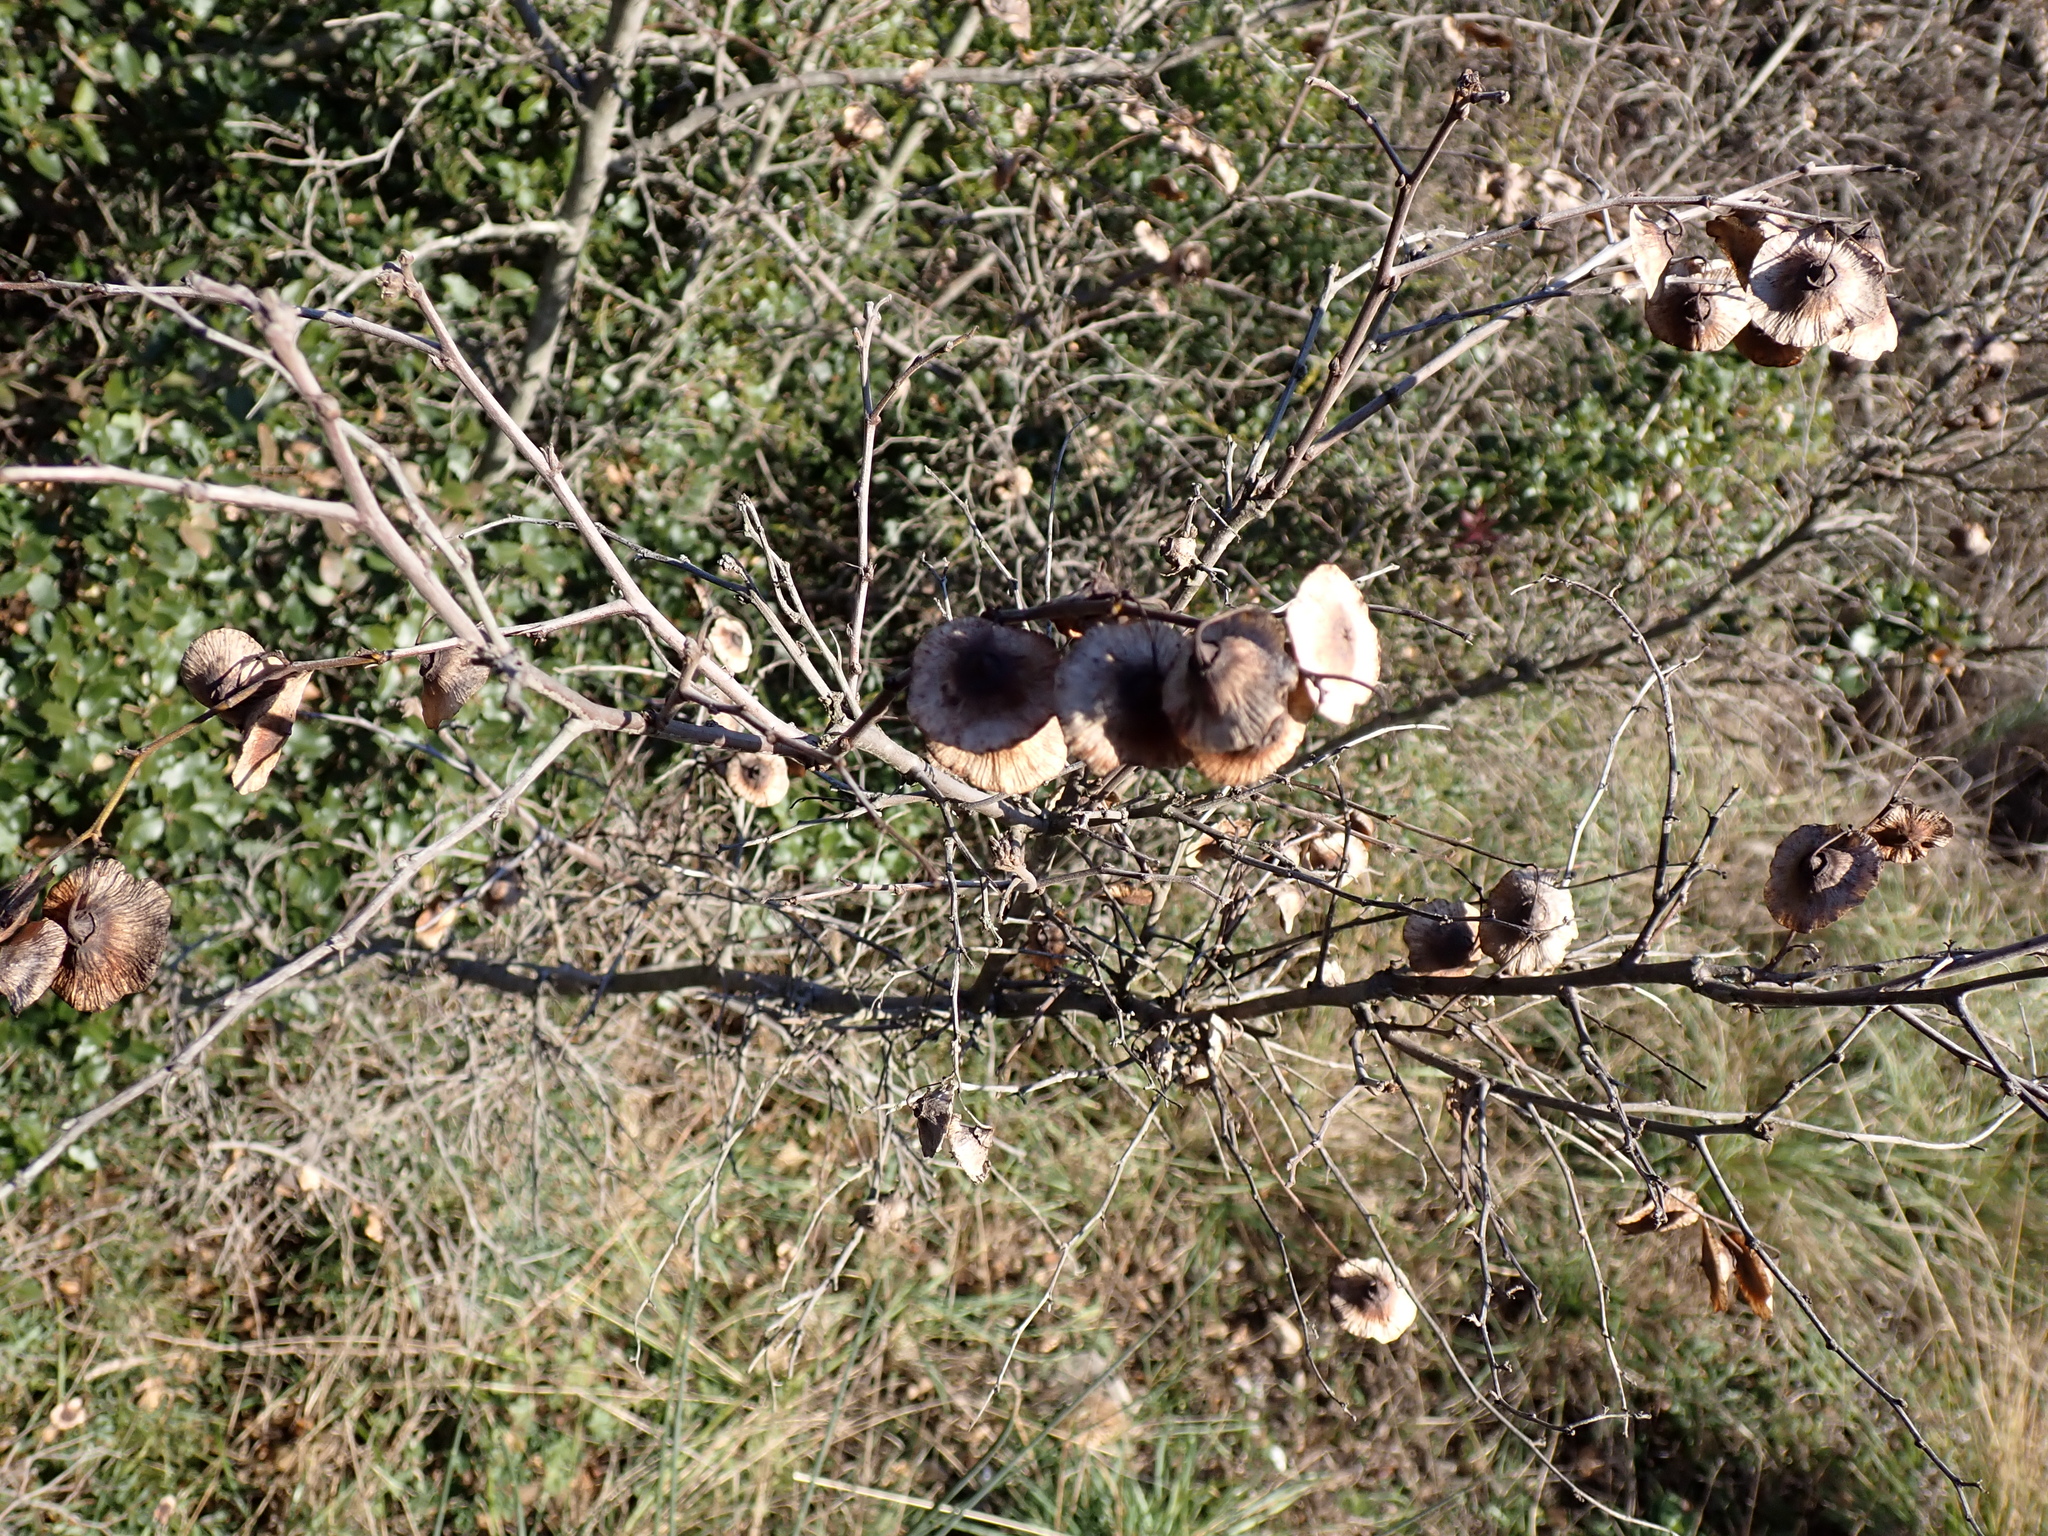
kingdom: Plantae
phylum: Tracheophyta
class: Magnoliopsida
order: Rosales
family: Rhamnaceae
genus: Paliurus
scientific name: Paliurus spina-christi
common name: Jeruselem thorn
